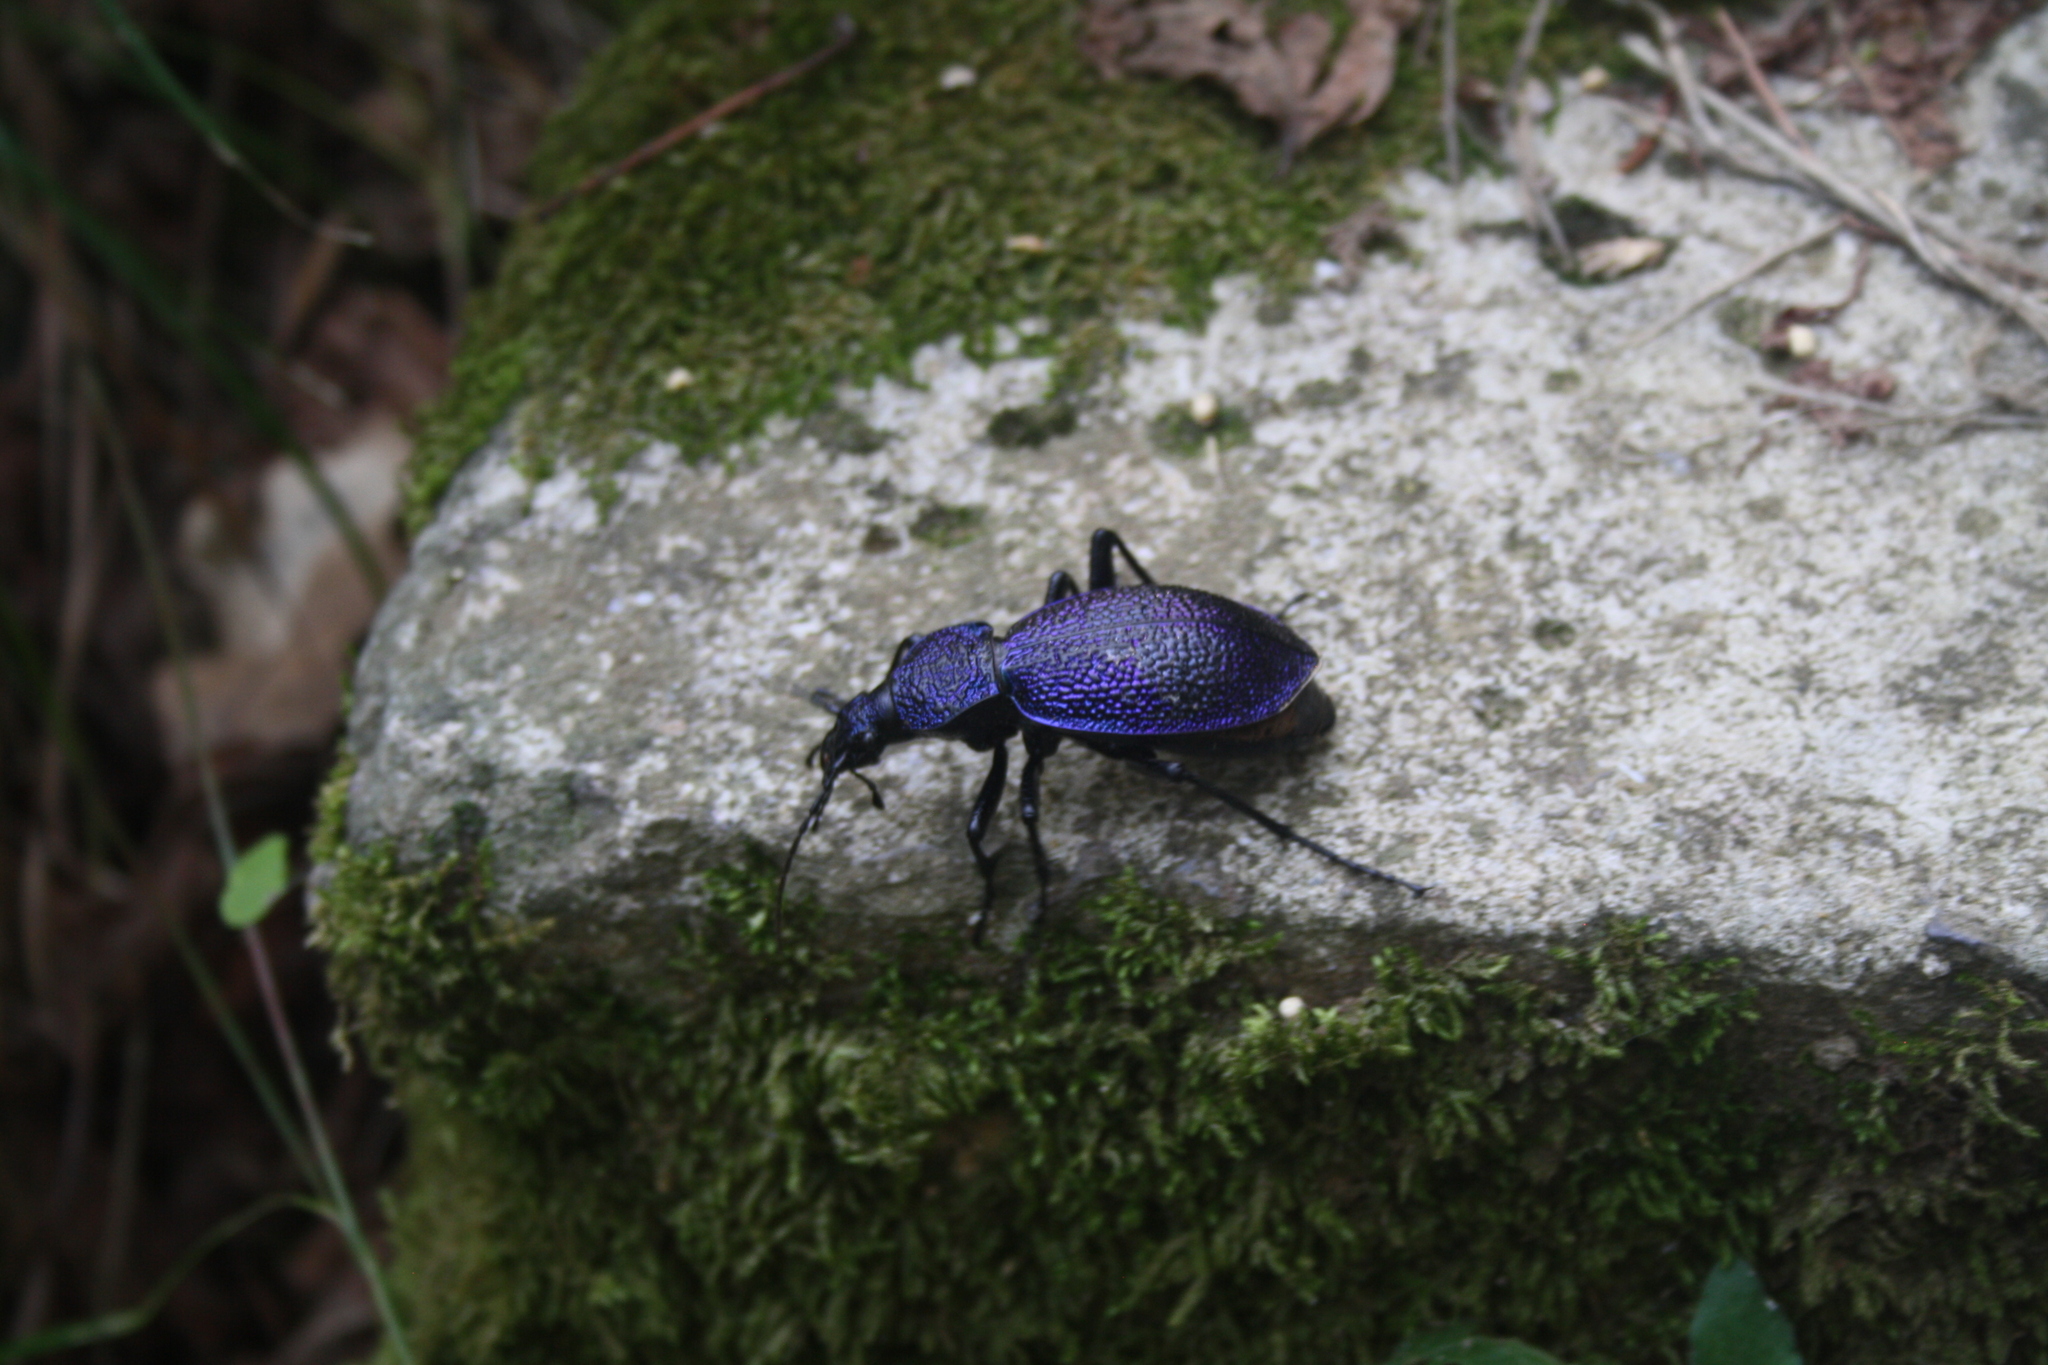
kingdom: Animalia
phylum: Arthropoda
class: Insecta
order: Coleoptera
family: Carabidae
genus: Carabus
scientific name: Carabus scabrosus
